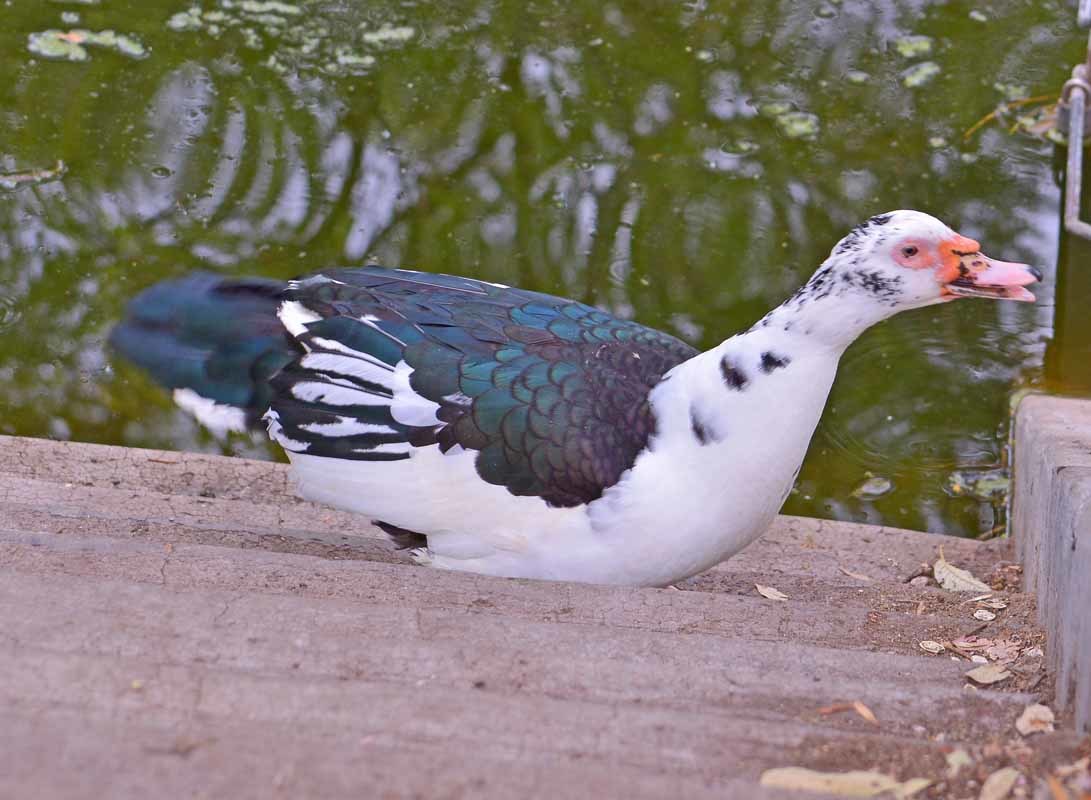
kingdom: Animalia
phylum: Chordata
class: Aves
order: Anseriformes
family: Anatidae
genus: Cairina
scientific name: Cairina moschata
